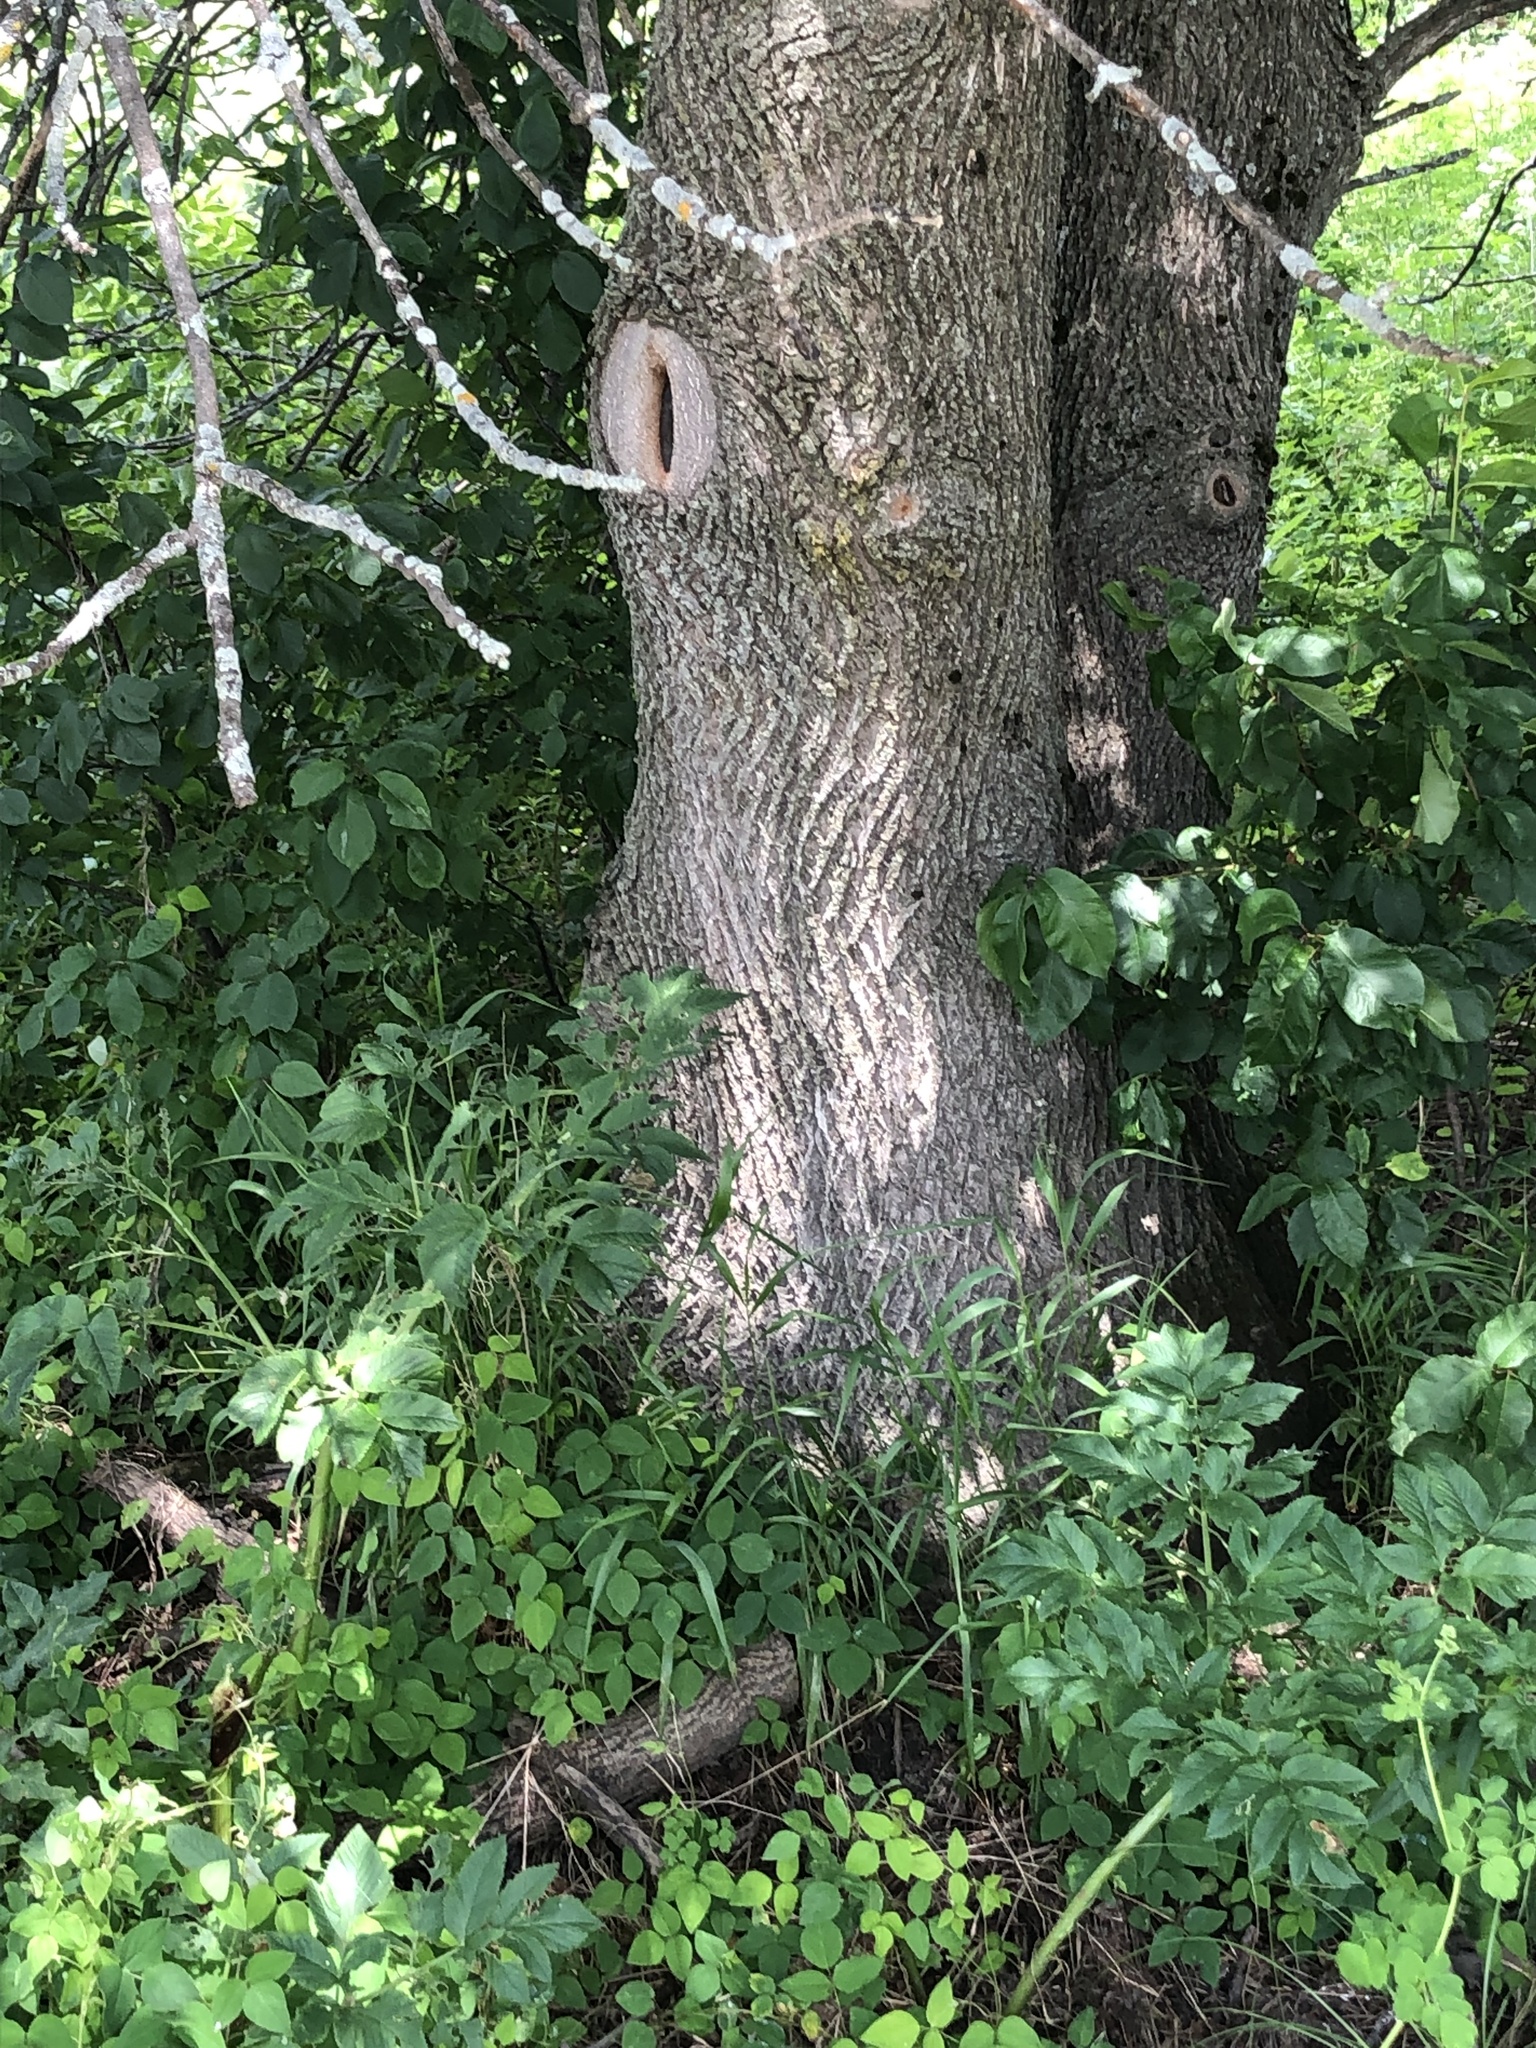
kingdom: Plantae
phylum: Tracheophyta
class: Magnoliopsida
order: Lamiales
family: Oleaceae
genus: Fraxinus
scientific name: Fraxinus pennsylvanica
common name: Green ash
